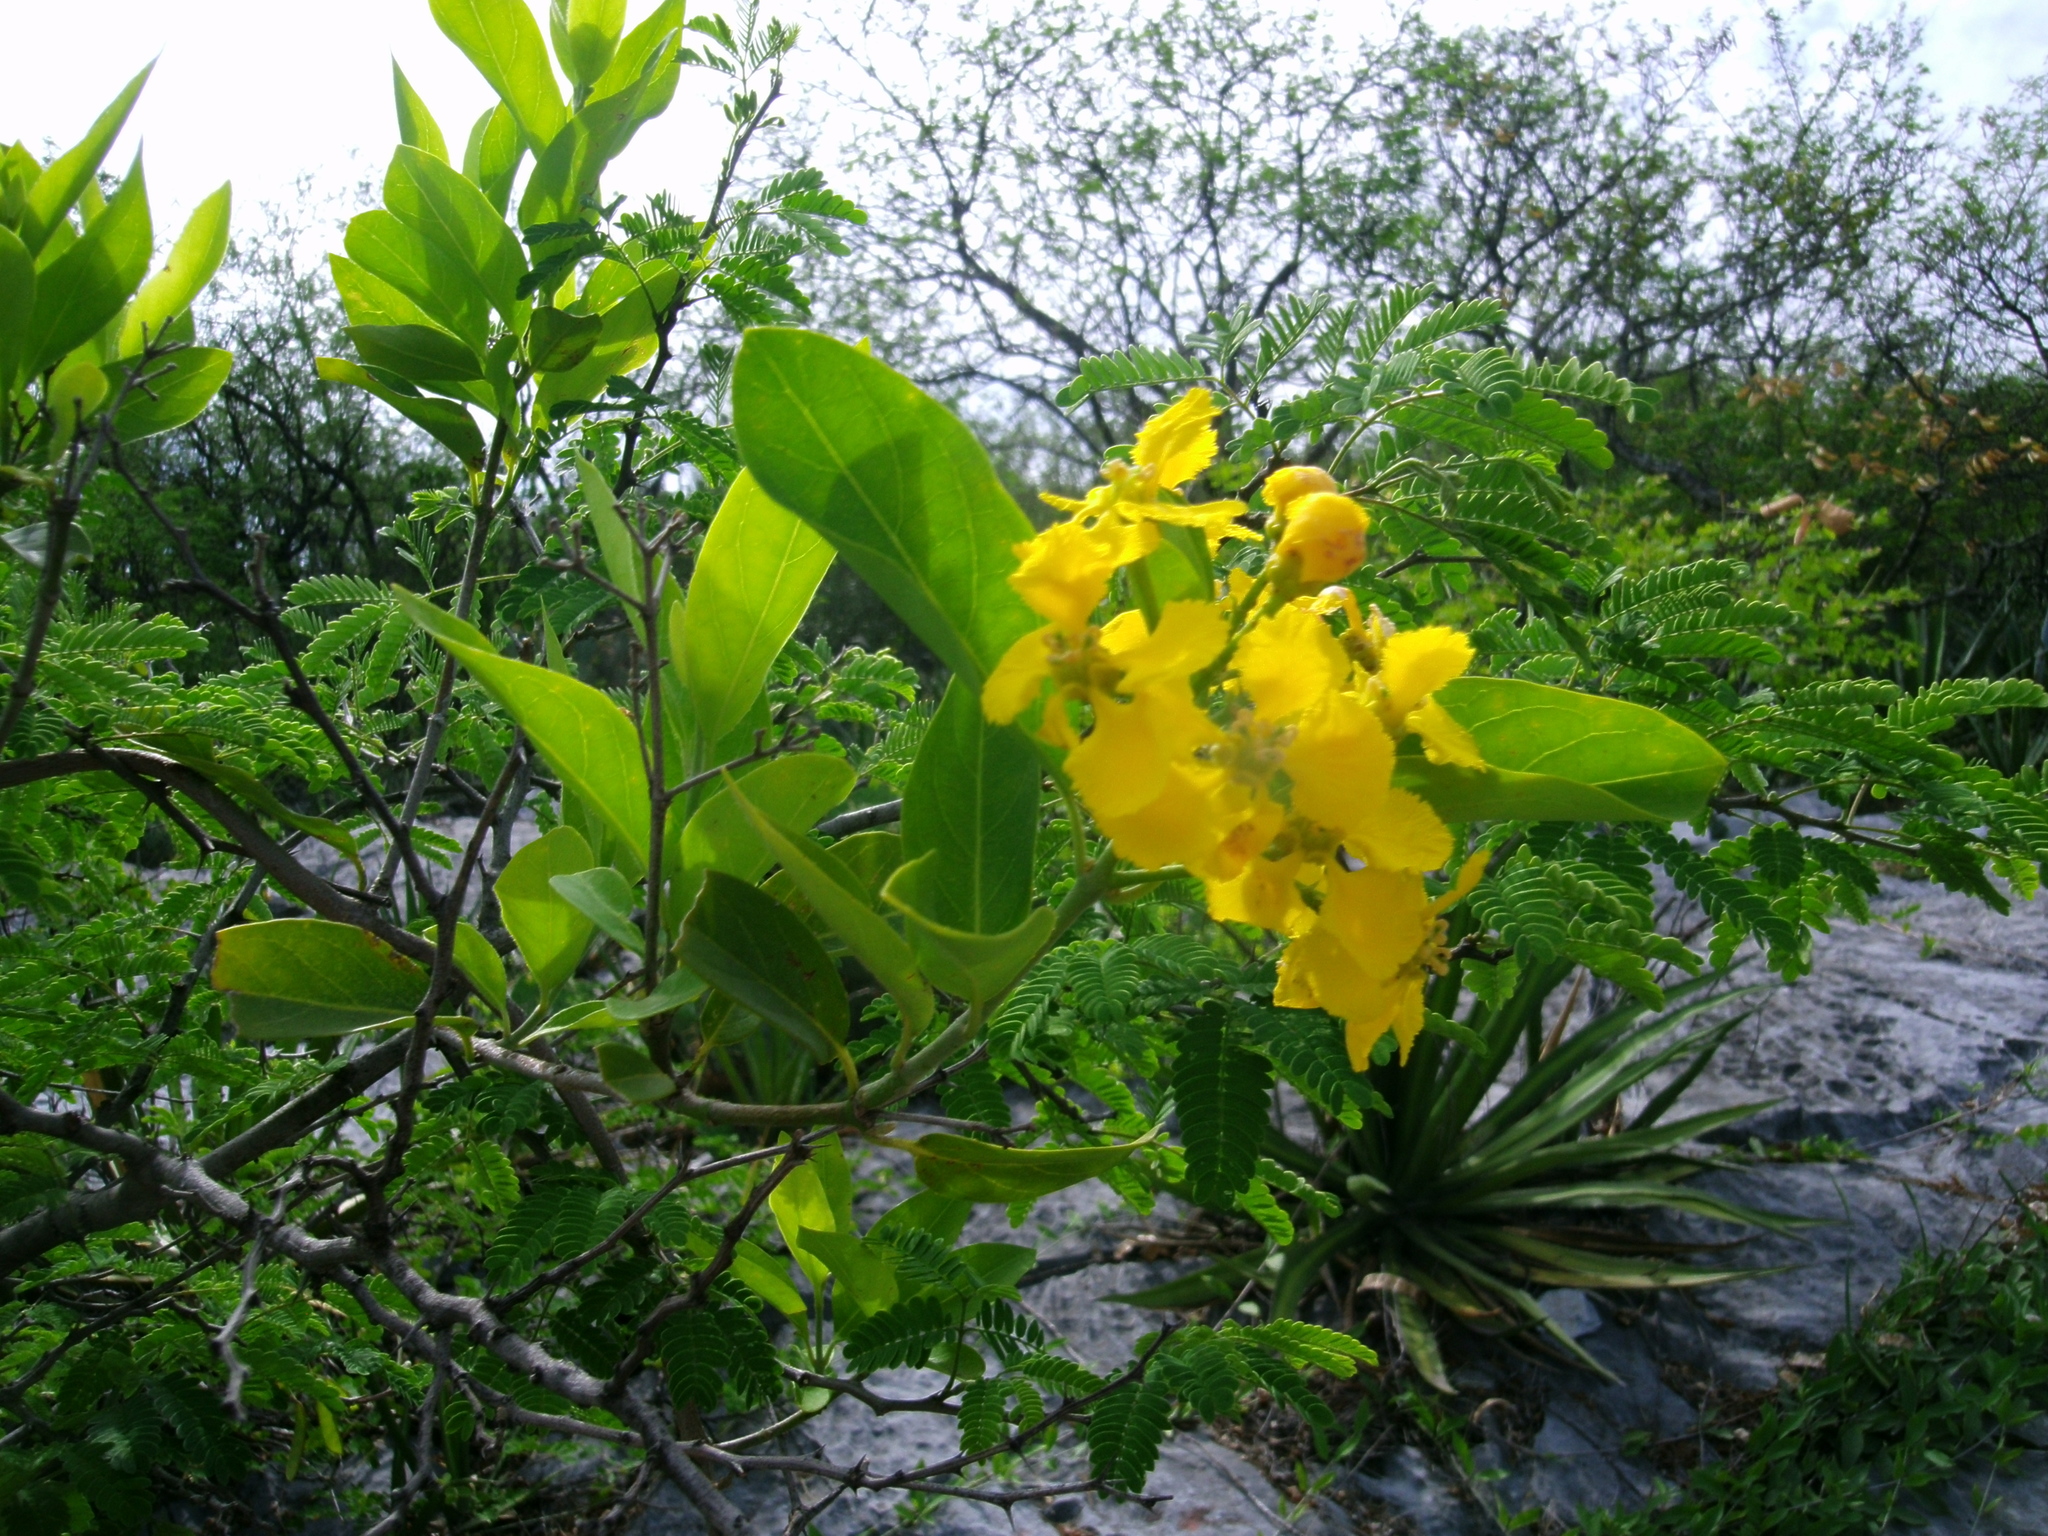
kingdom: Plantae
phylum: Tracheophyta
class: Magnoliopsida
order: Malpighiales
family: Malpighiaceae
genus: Callaeum
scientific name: Callaeum macropterum
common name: Mexican butterfly-vine
